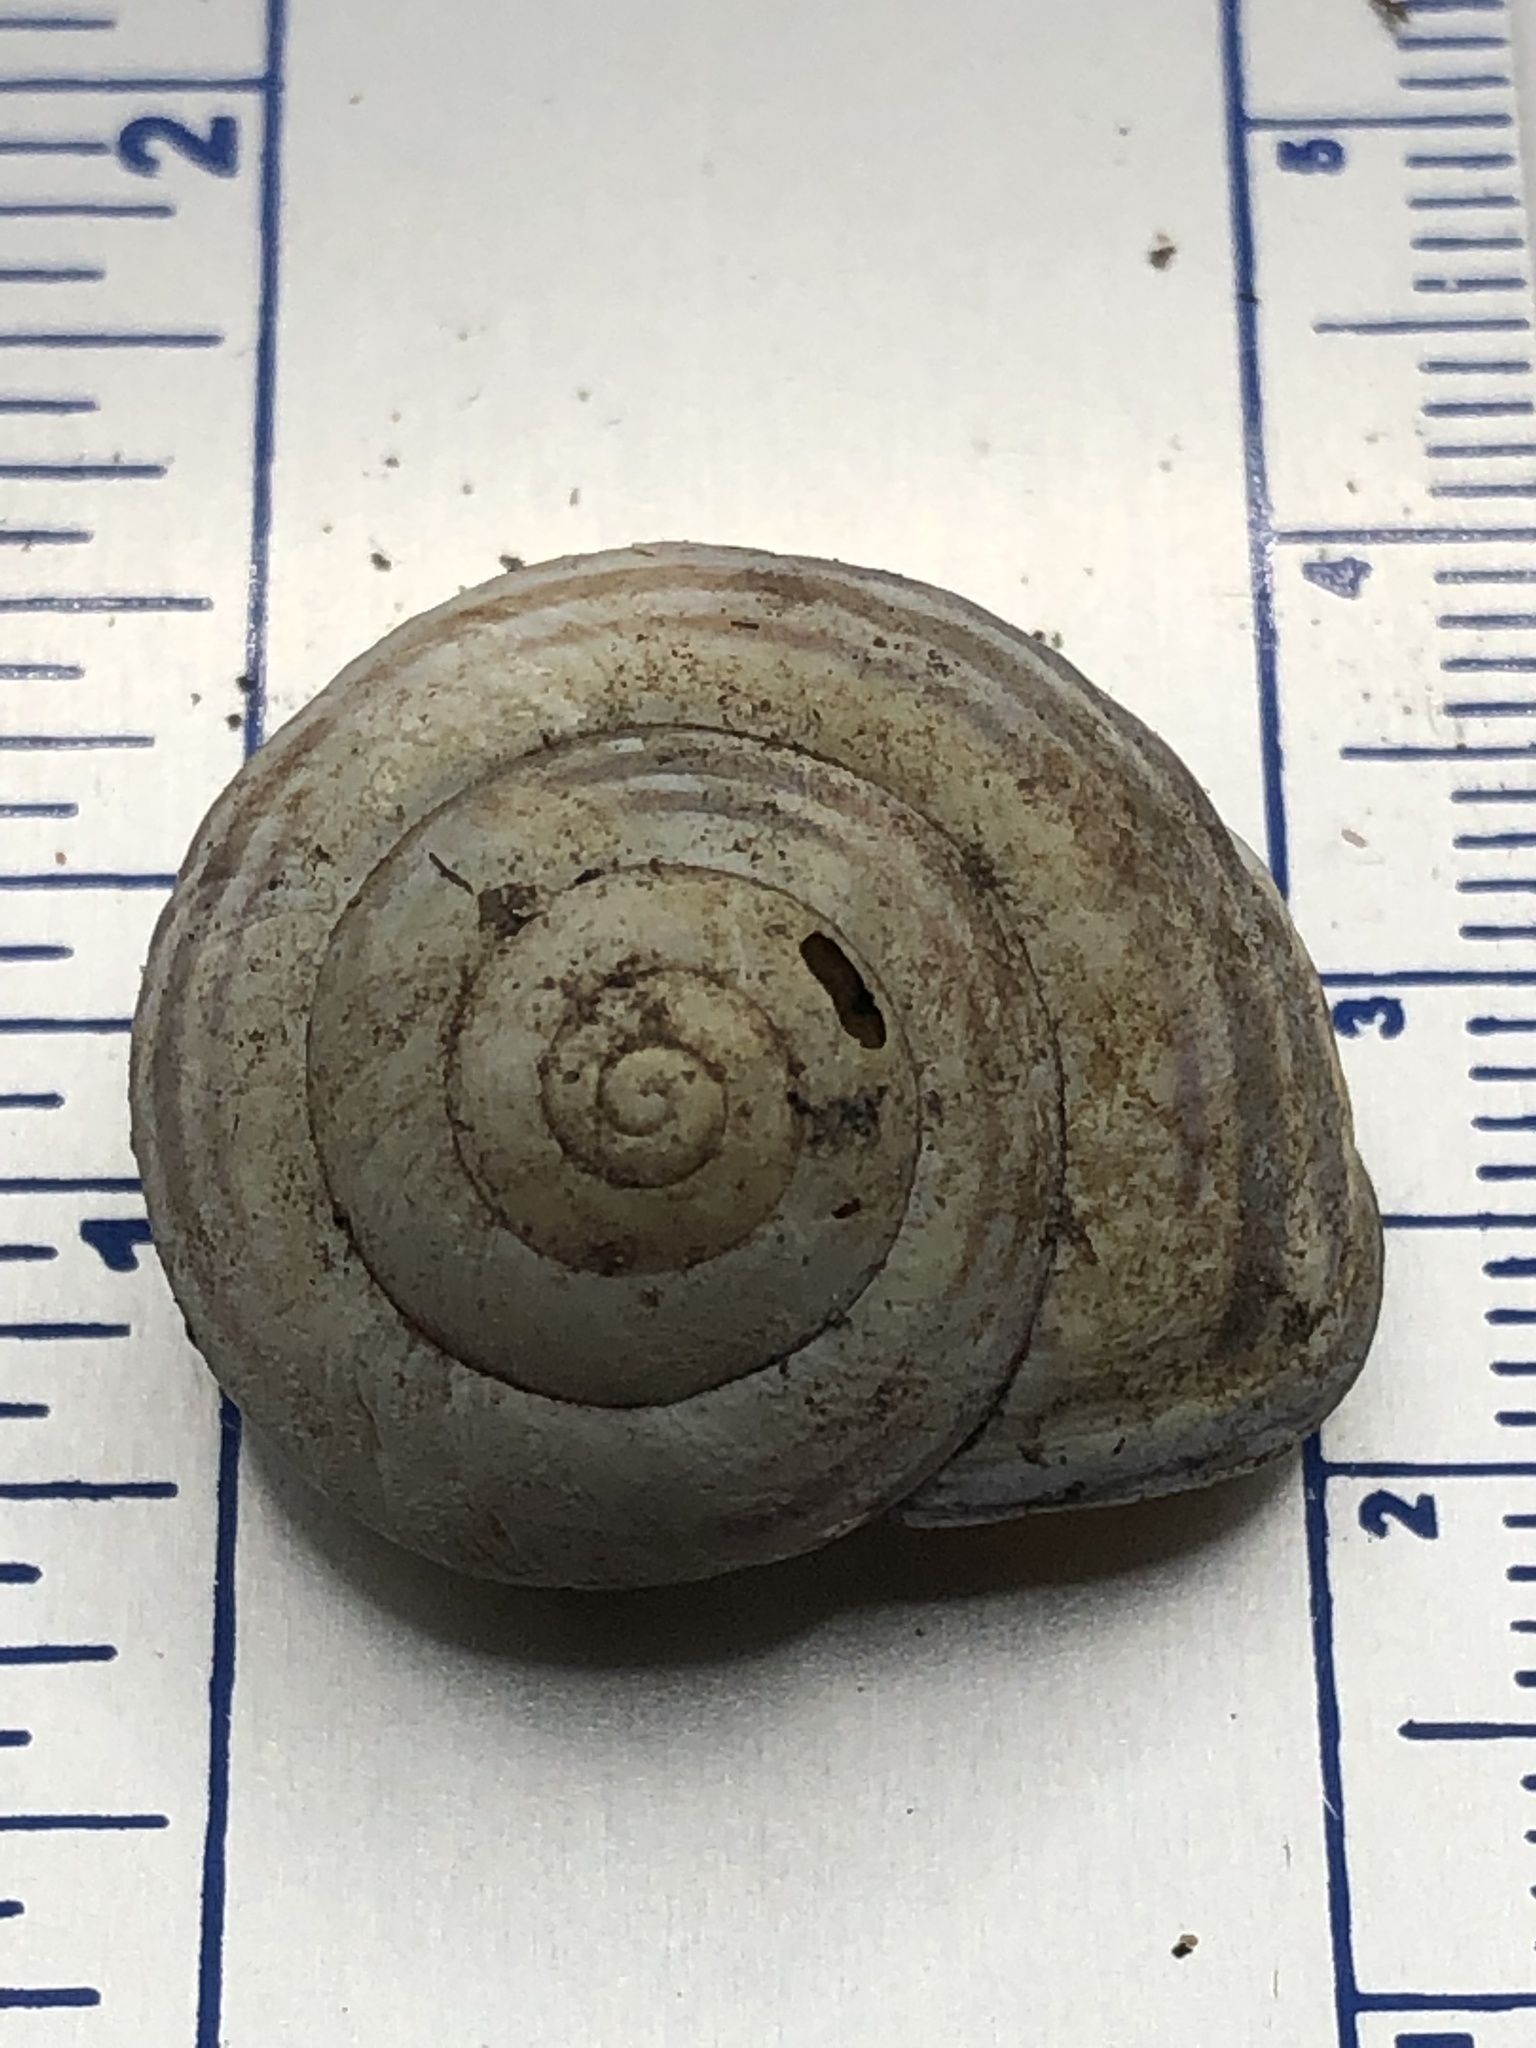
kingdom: Animalia
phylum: Mollusca
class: Gastropoda
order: Stylommatophora
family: Helicidae
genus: Cepaea
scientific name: Cepaea nemoralis
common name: Grovesnail
